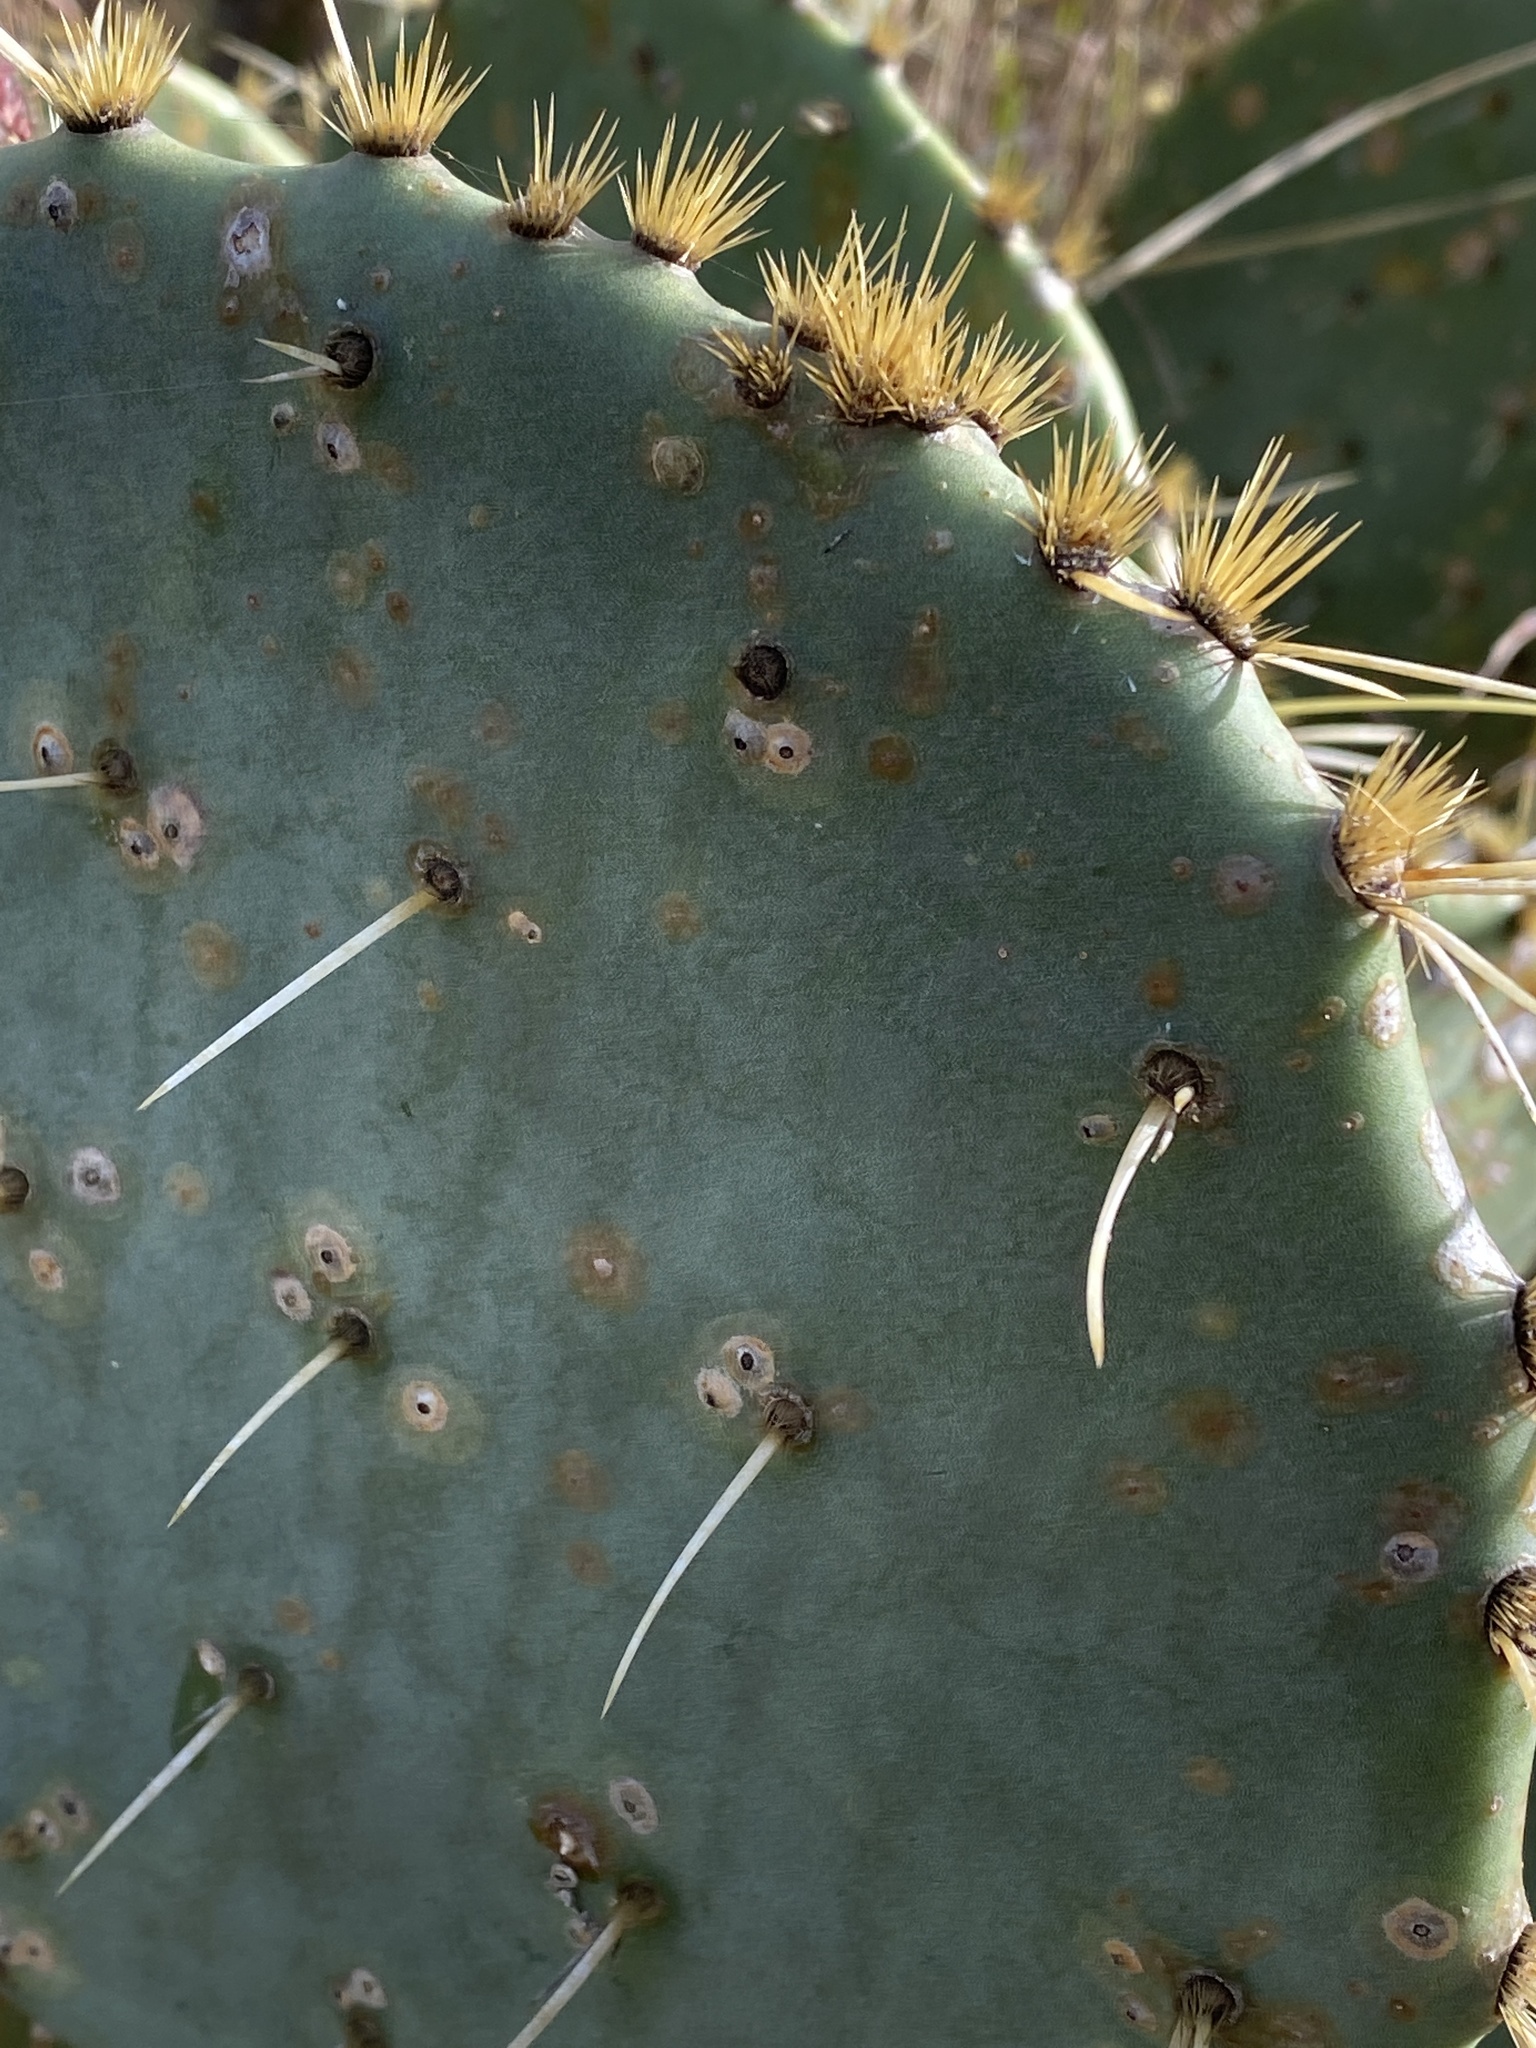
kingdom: Plantae
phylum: Tracheophyta
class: Magnoliopsida
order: Caryophyllales
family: Cactaceae
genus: Opuntia
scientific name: Opuntia engelmannii
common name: Cactus-apple
